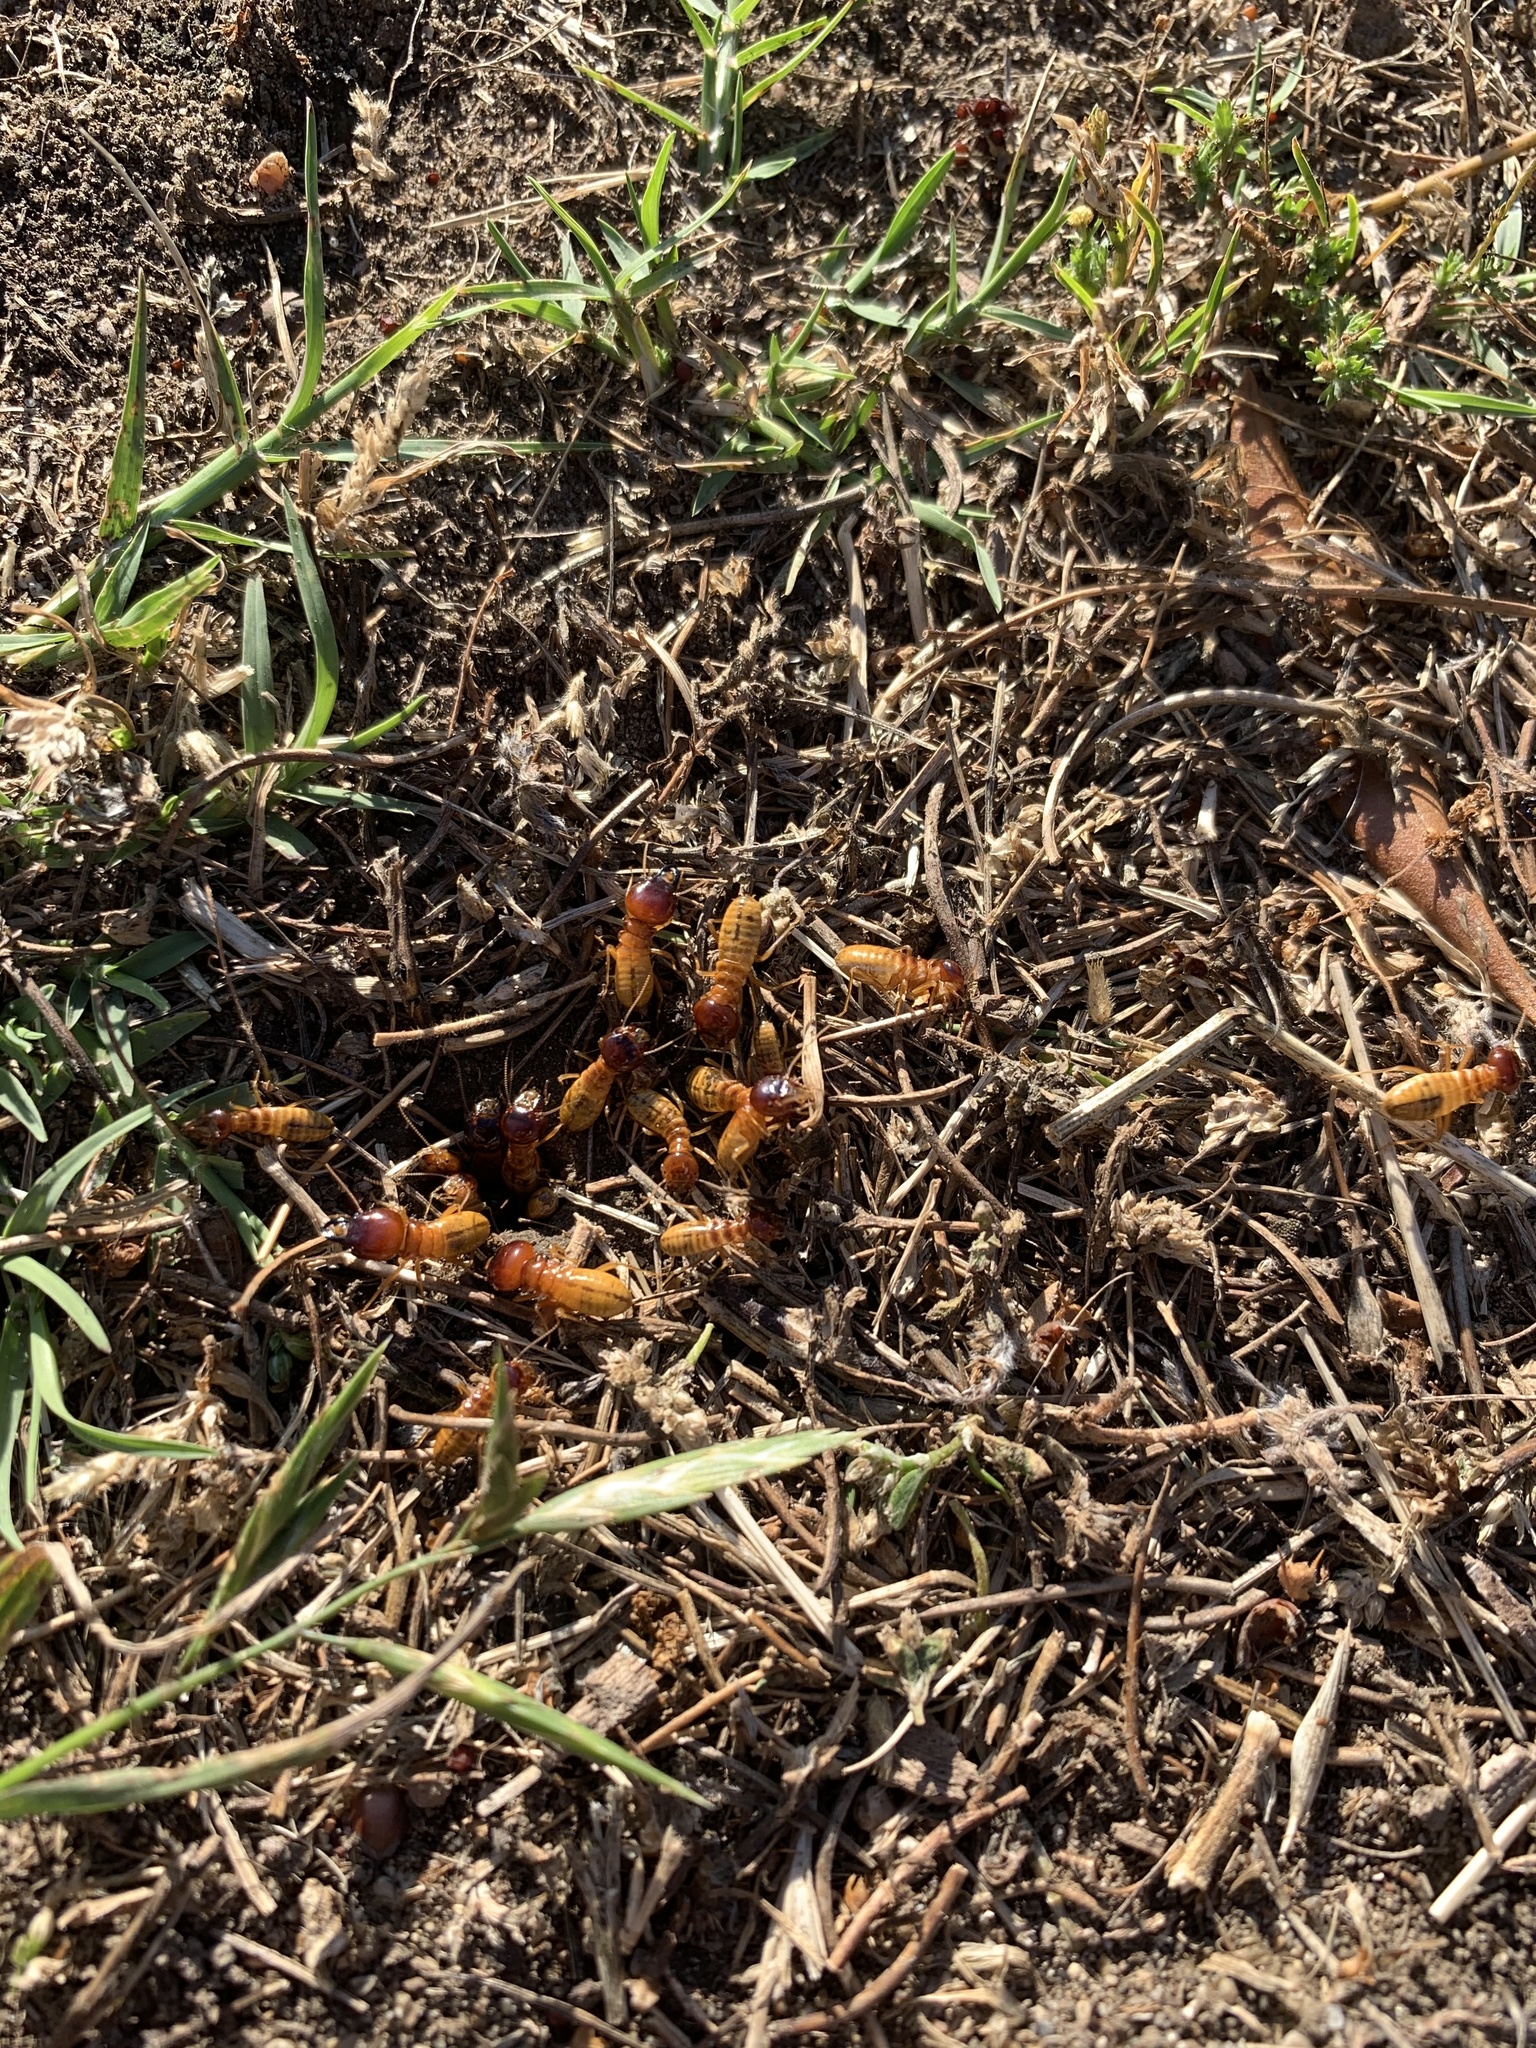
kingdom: Animalia
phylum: Arthropoda
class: Insecta
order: Blattodea
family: Hodotermitidae
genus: Microhodotermes
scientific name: Microhodotermes viator
